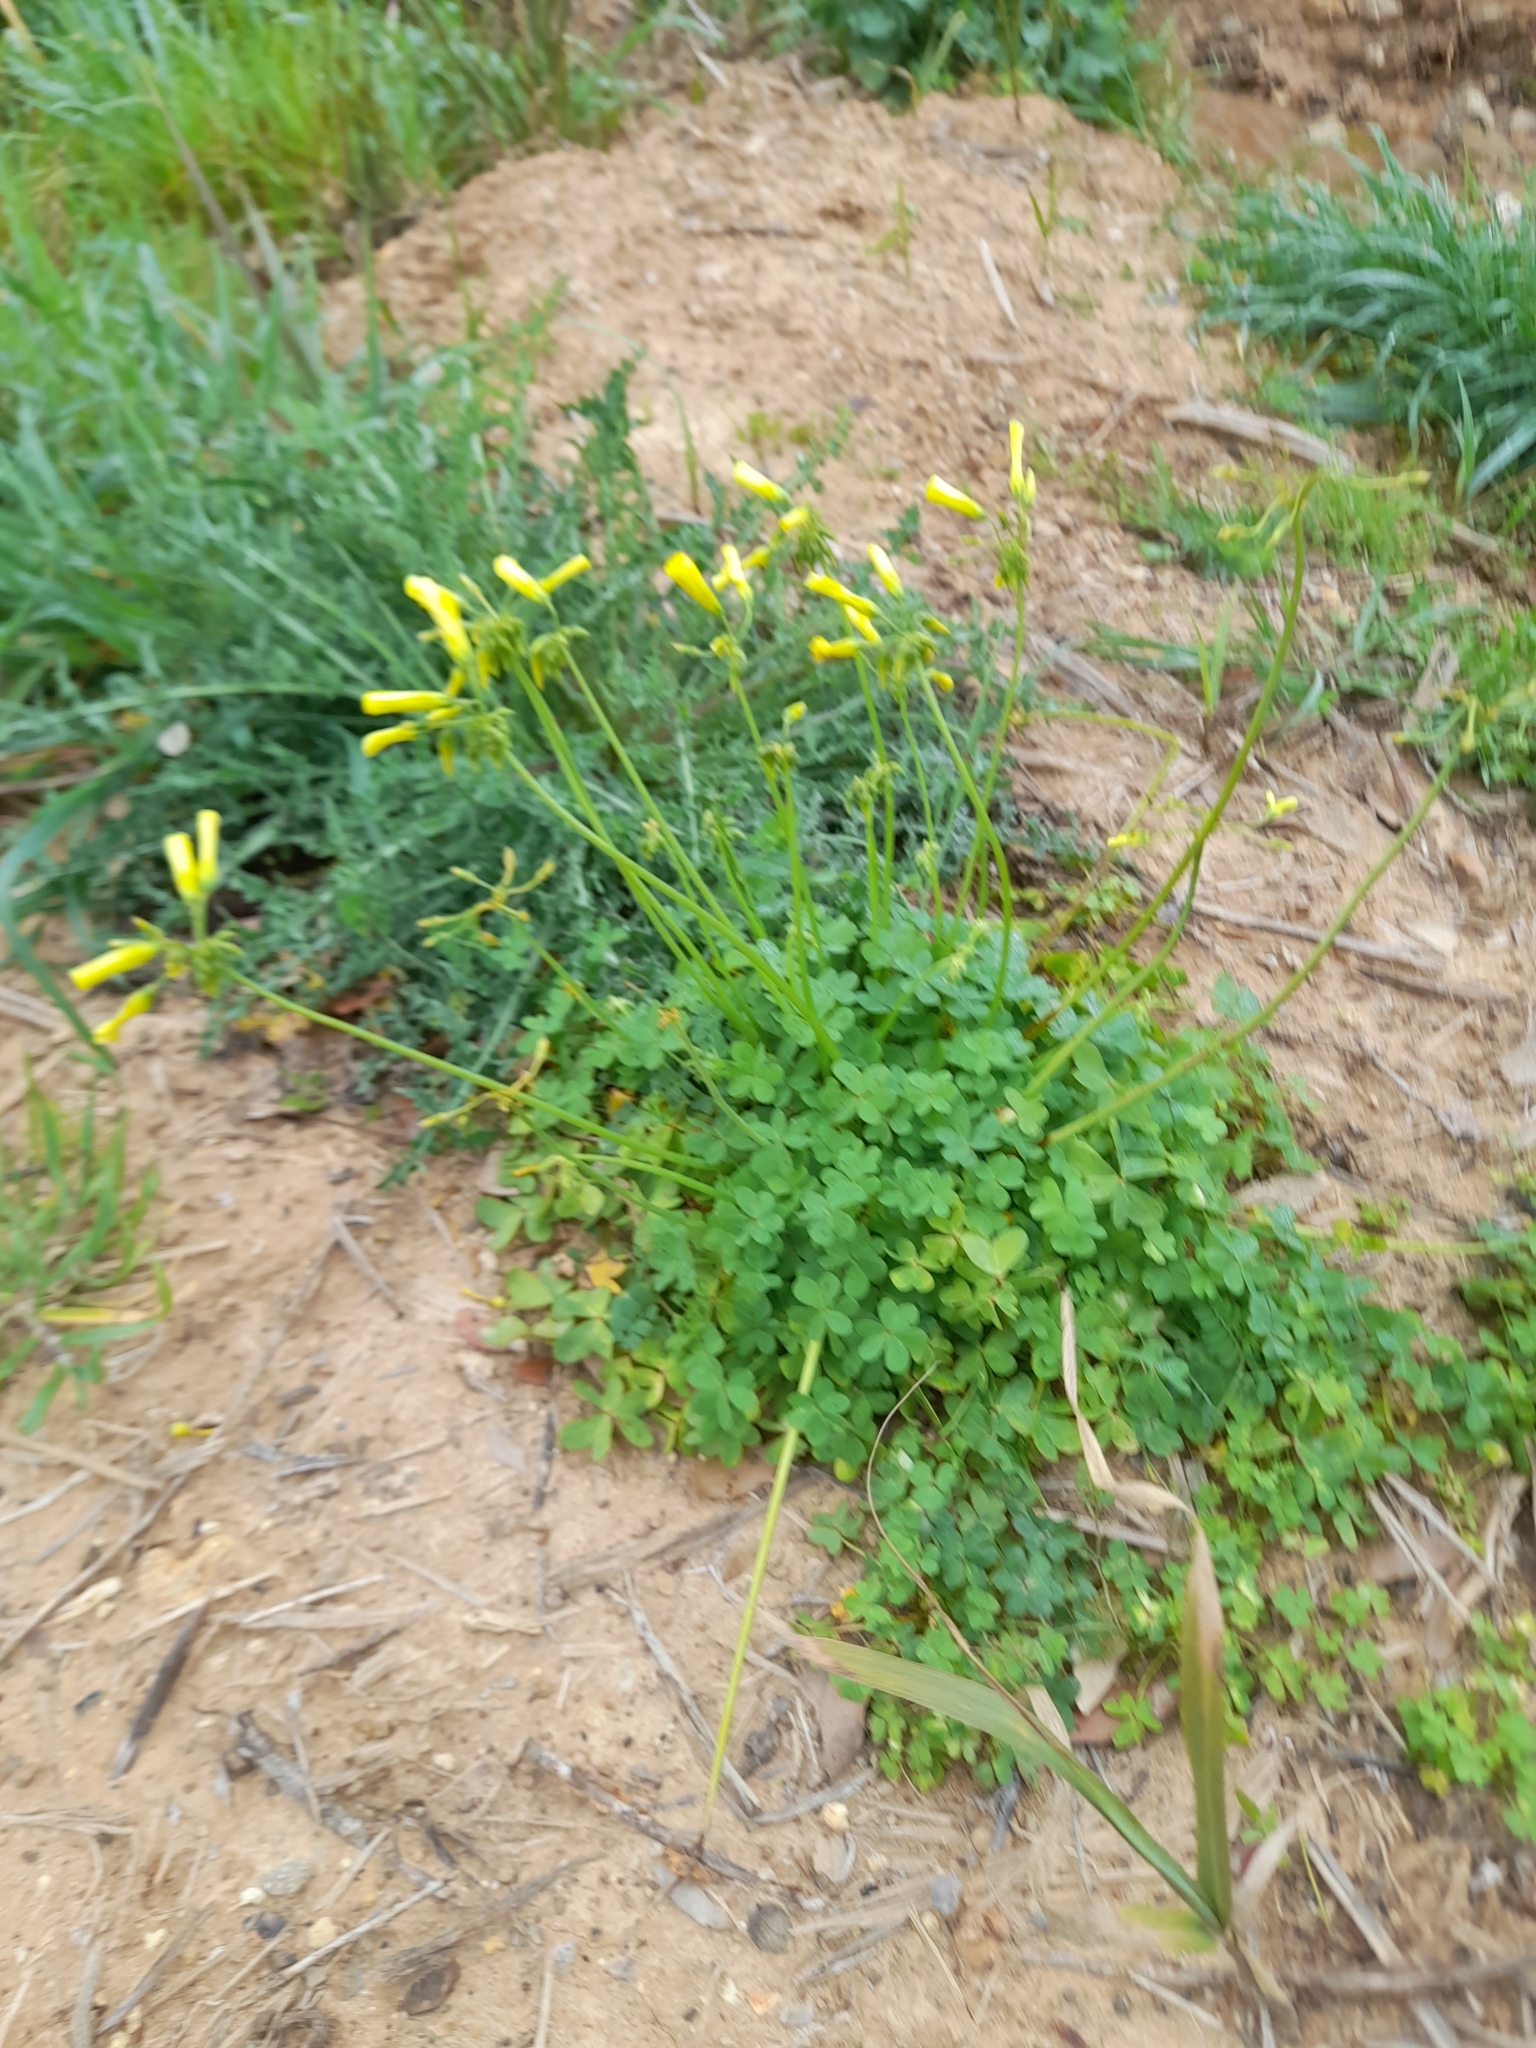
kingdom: Plantae
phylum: Tracheophyta
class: Magnoliopsida
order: Oxalidales
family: Oxalidaceae
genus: Oxalis
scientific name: Oxalis pes-caprae
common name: Bermuda-buttercup
